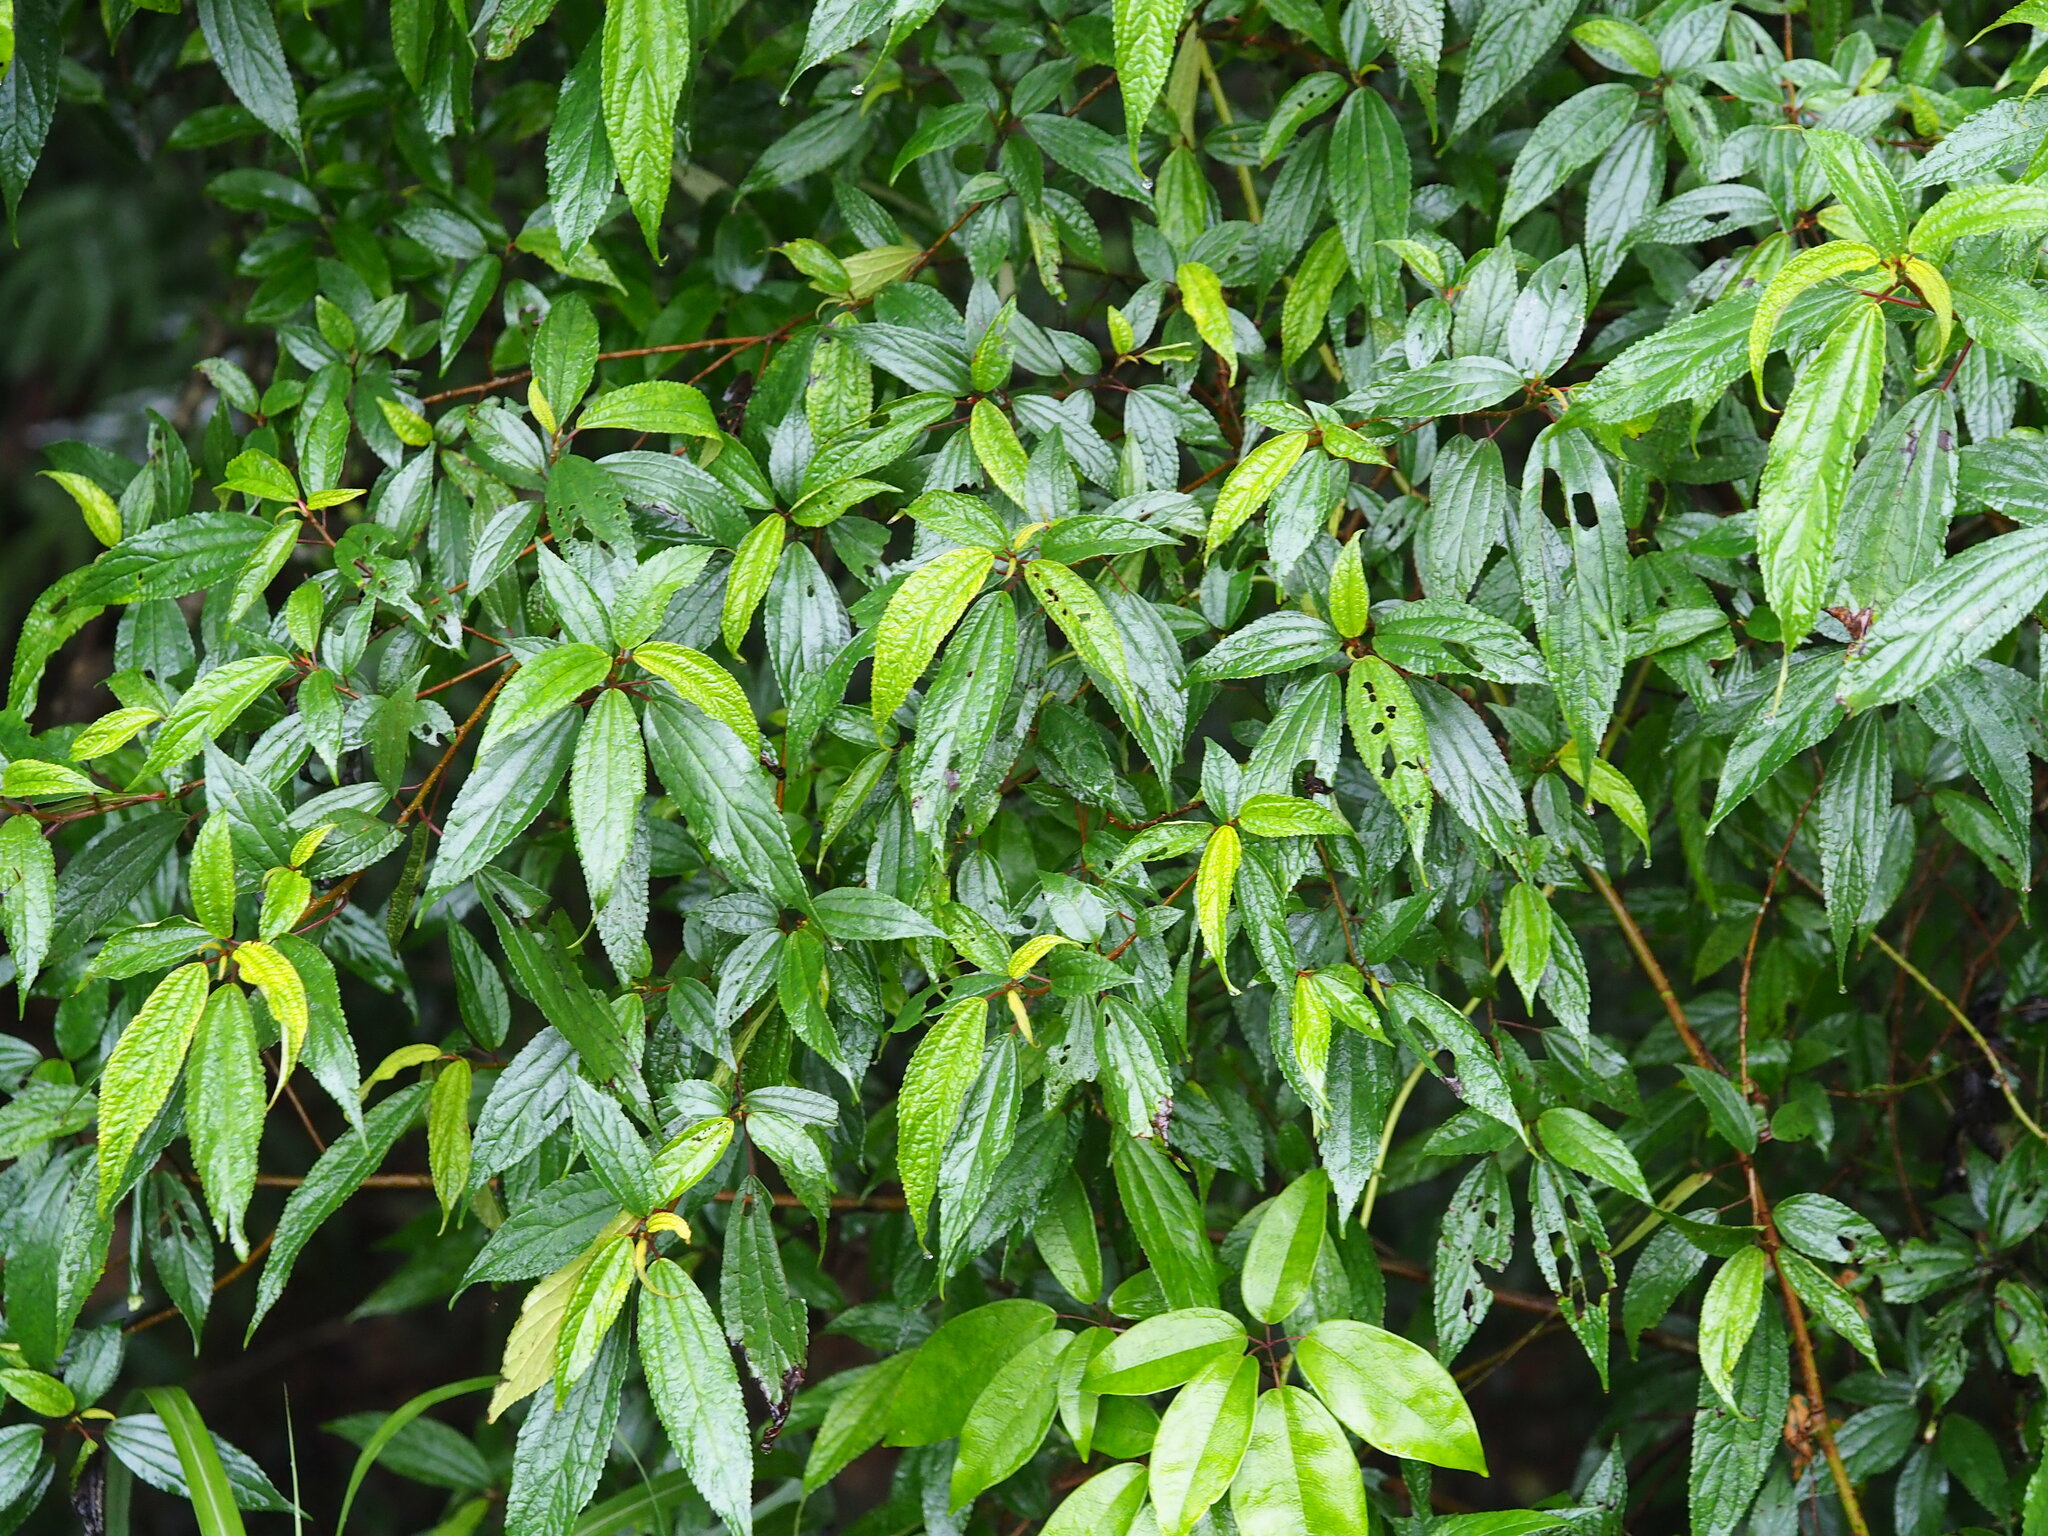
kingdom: Plantae
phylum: Tracheophyta
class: Magnoliopsida
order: Rosales
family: Urticaceae
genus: Oreocnide
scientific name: Oreocnide pedunculata
